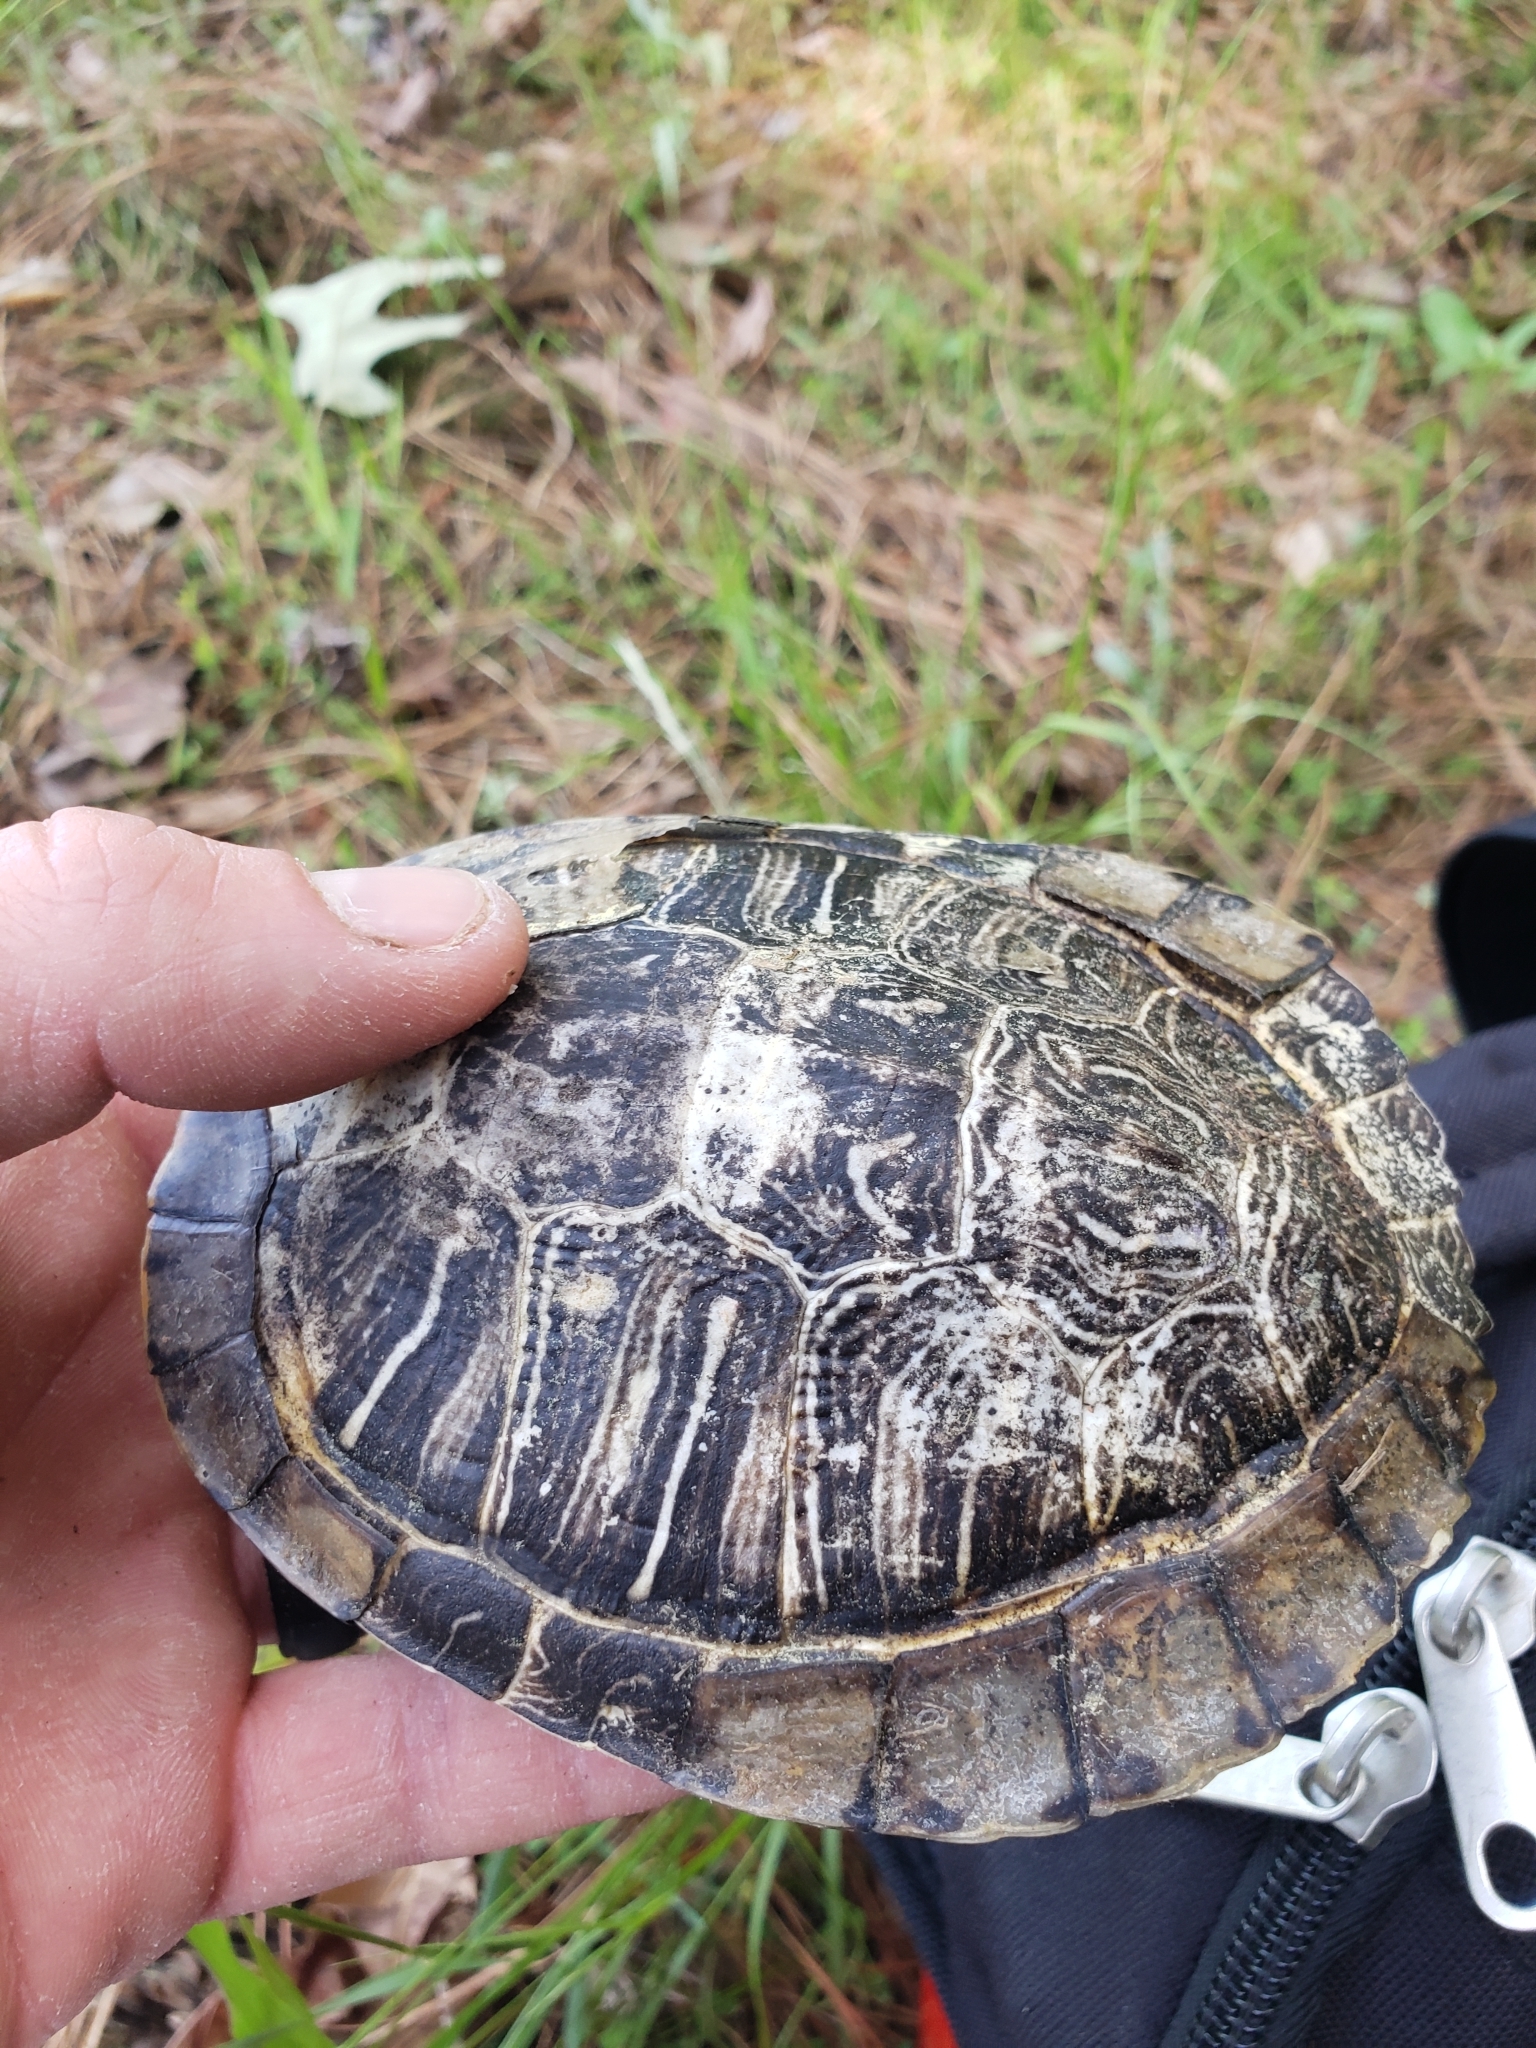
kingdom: Animalia
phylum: Chordata
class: Testudines
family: Emydidae
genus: Trachemys
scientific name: Trachemys scripta
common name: Slider
